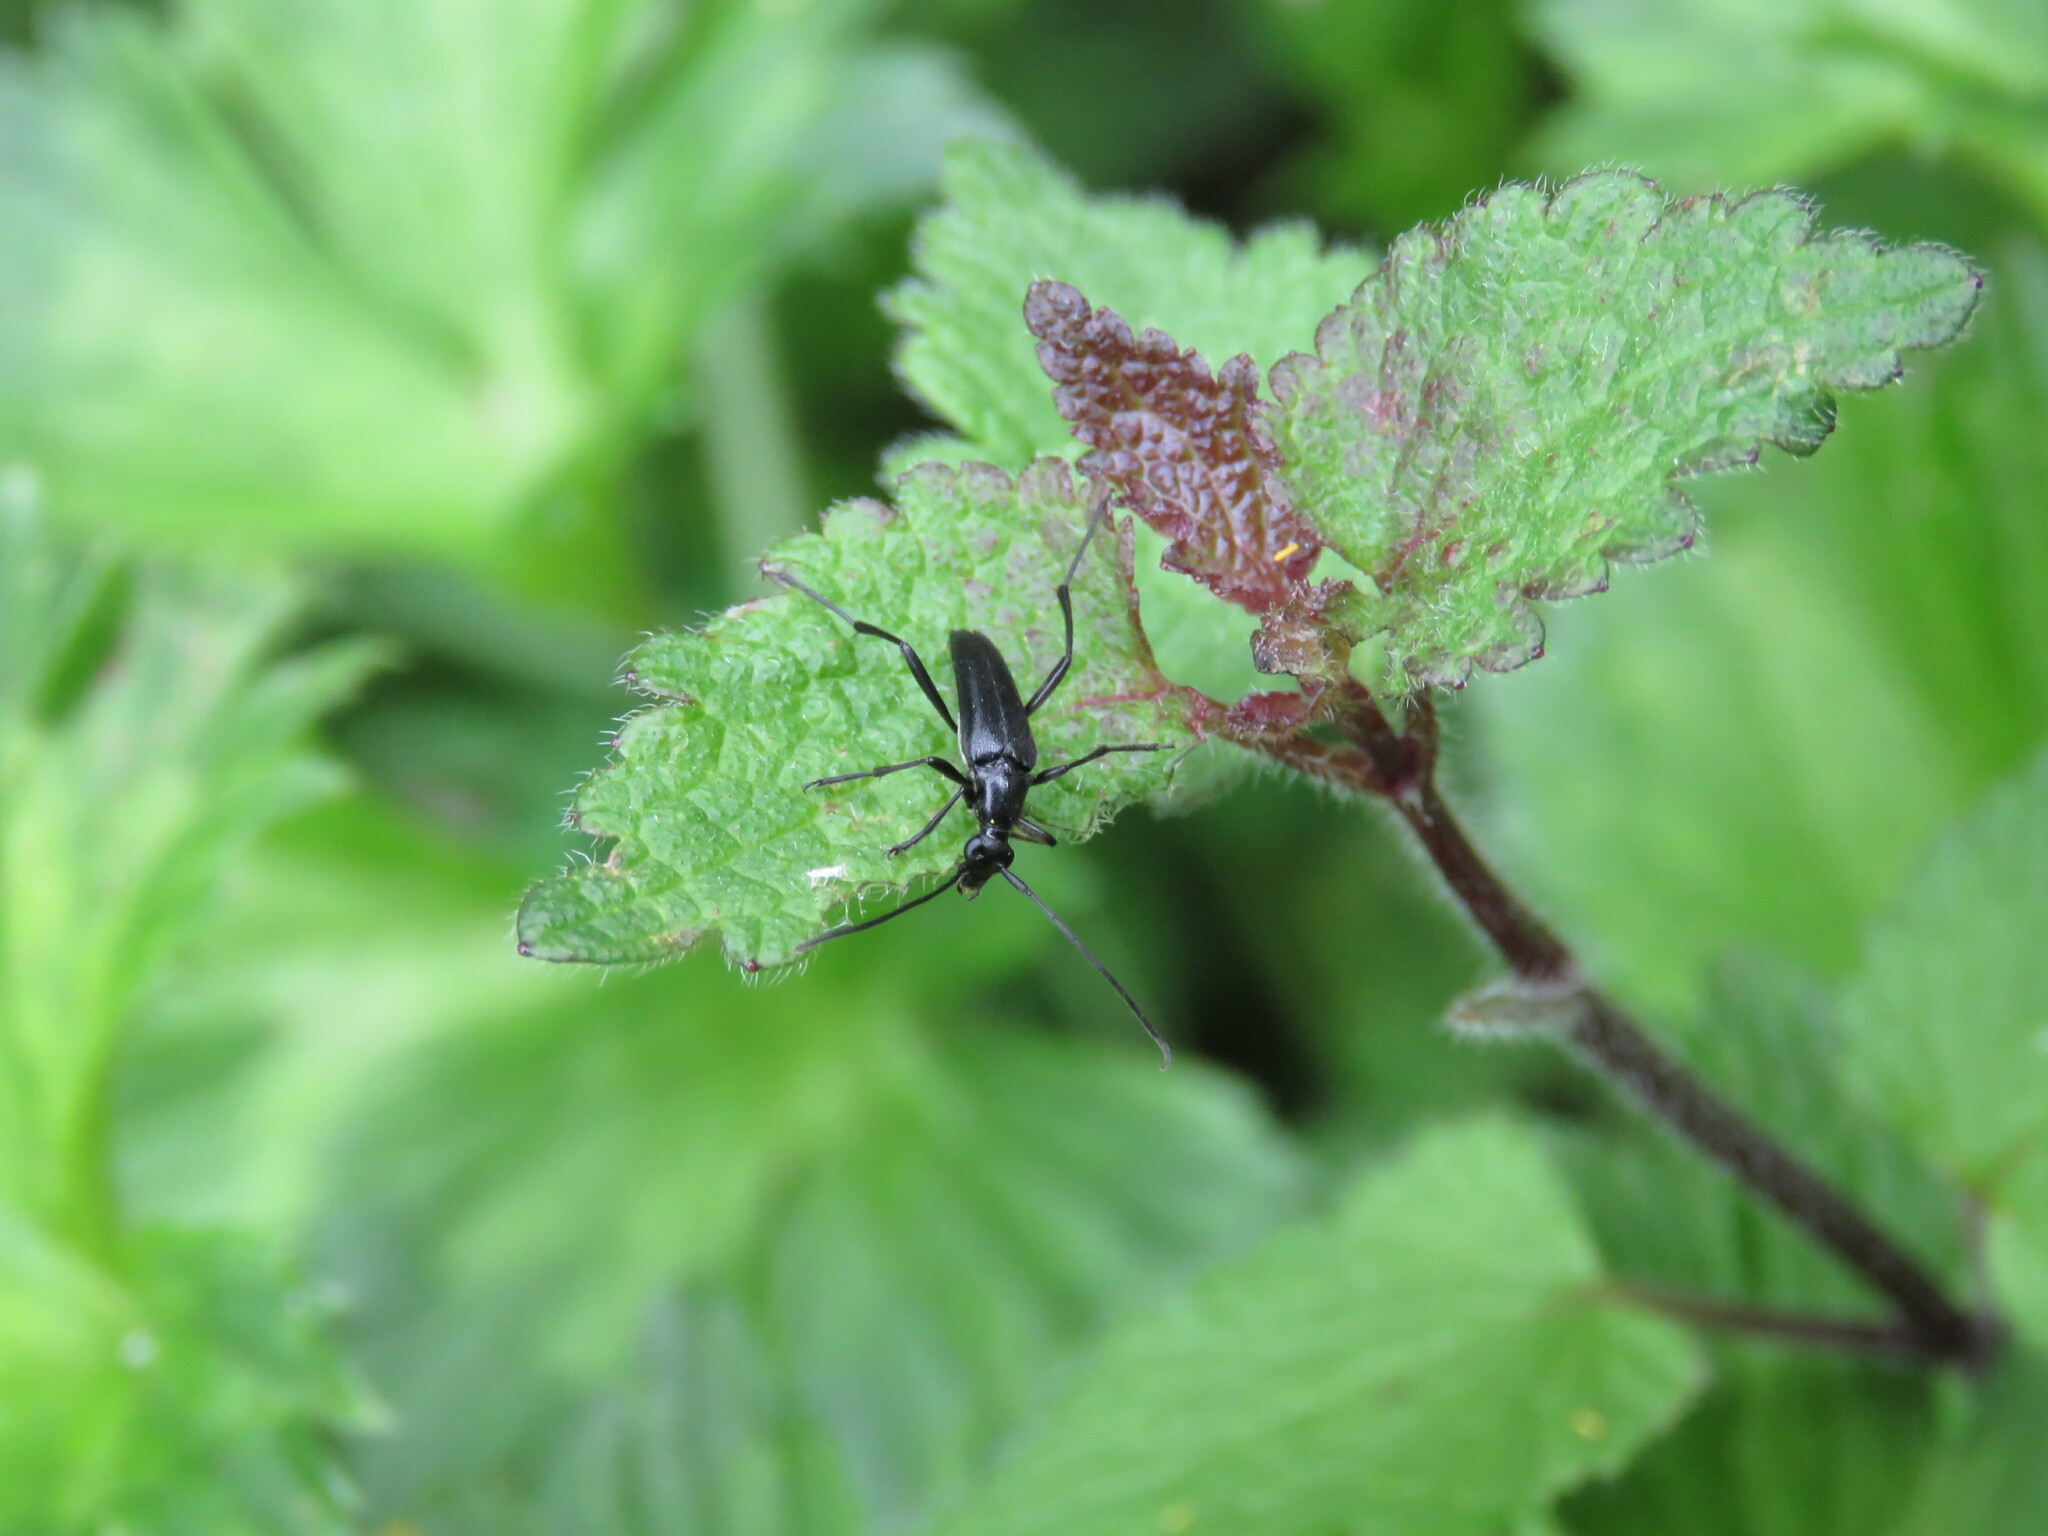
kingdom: Animalia
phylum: Arthropoda
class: Insecta
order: Coleoptera
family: Cerambycidae
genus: Stenurella
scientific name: Stenurella nigra
